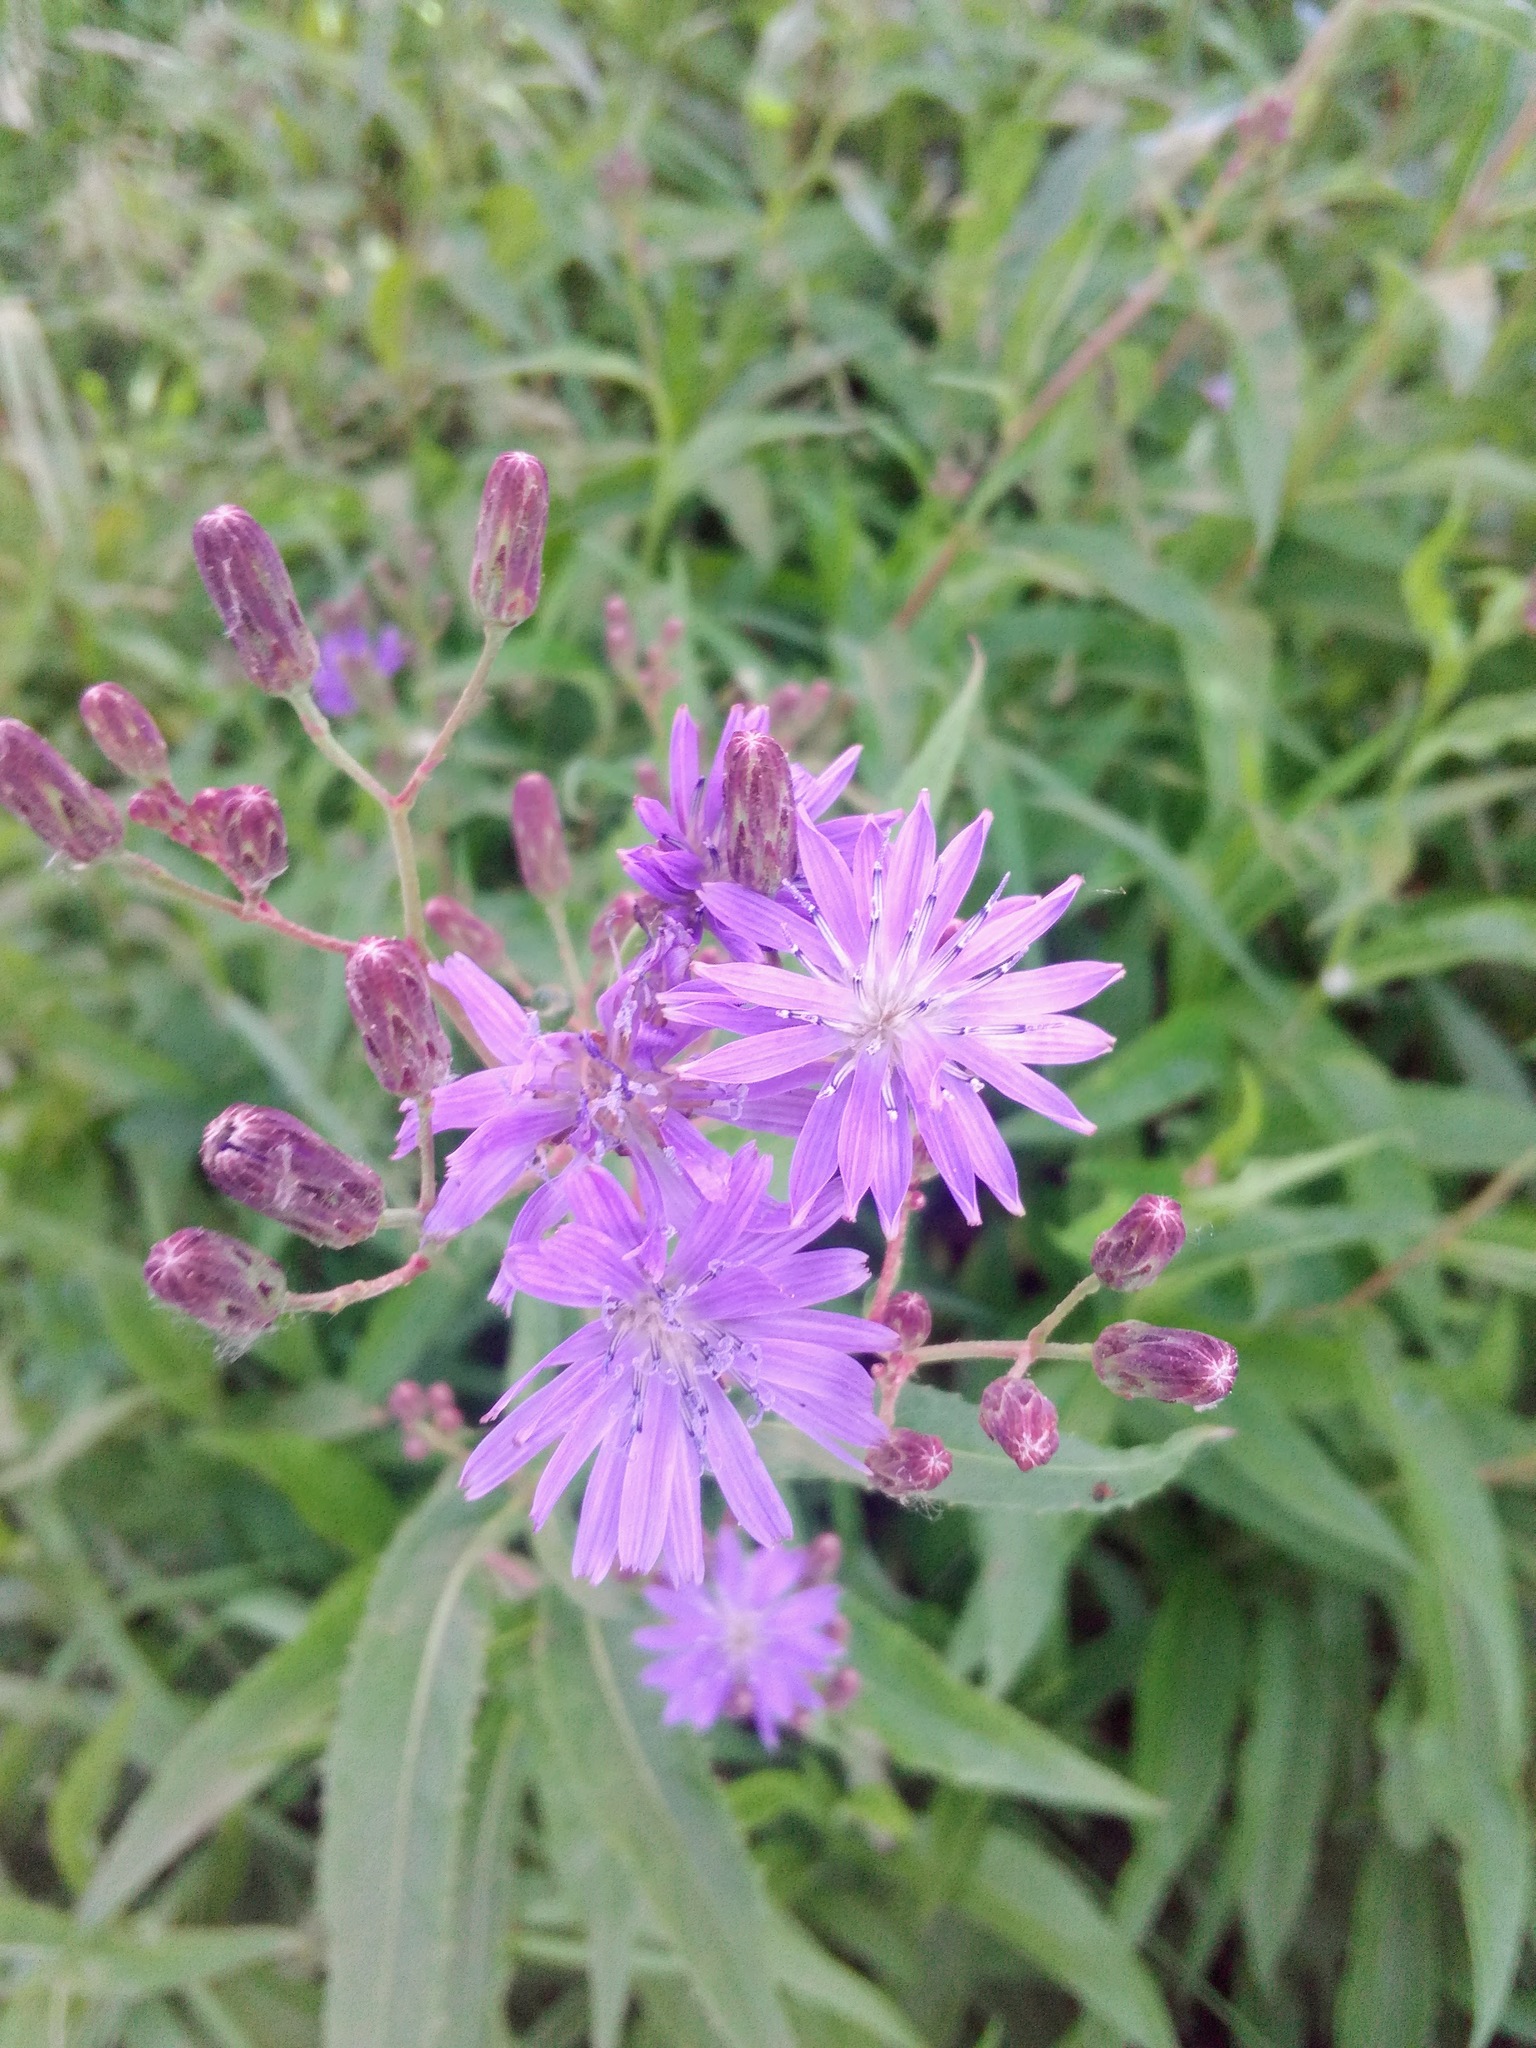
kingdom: Plantae
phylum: Tracheophyta
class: Magnoliopsida
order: Asterales
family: Asteraceae
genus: Lactuca
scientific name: Lactuca tatarica
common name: Blue lettuce
